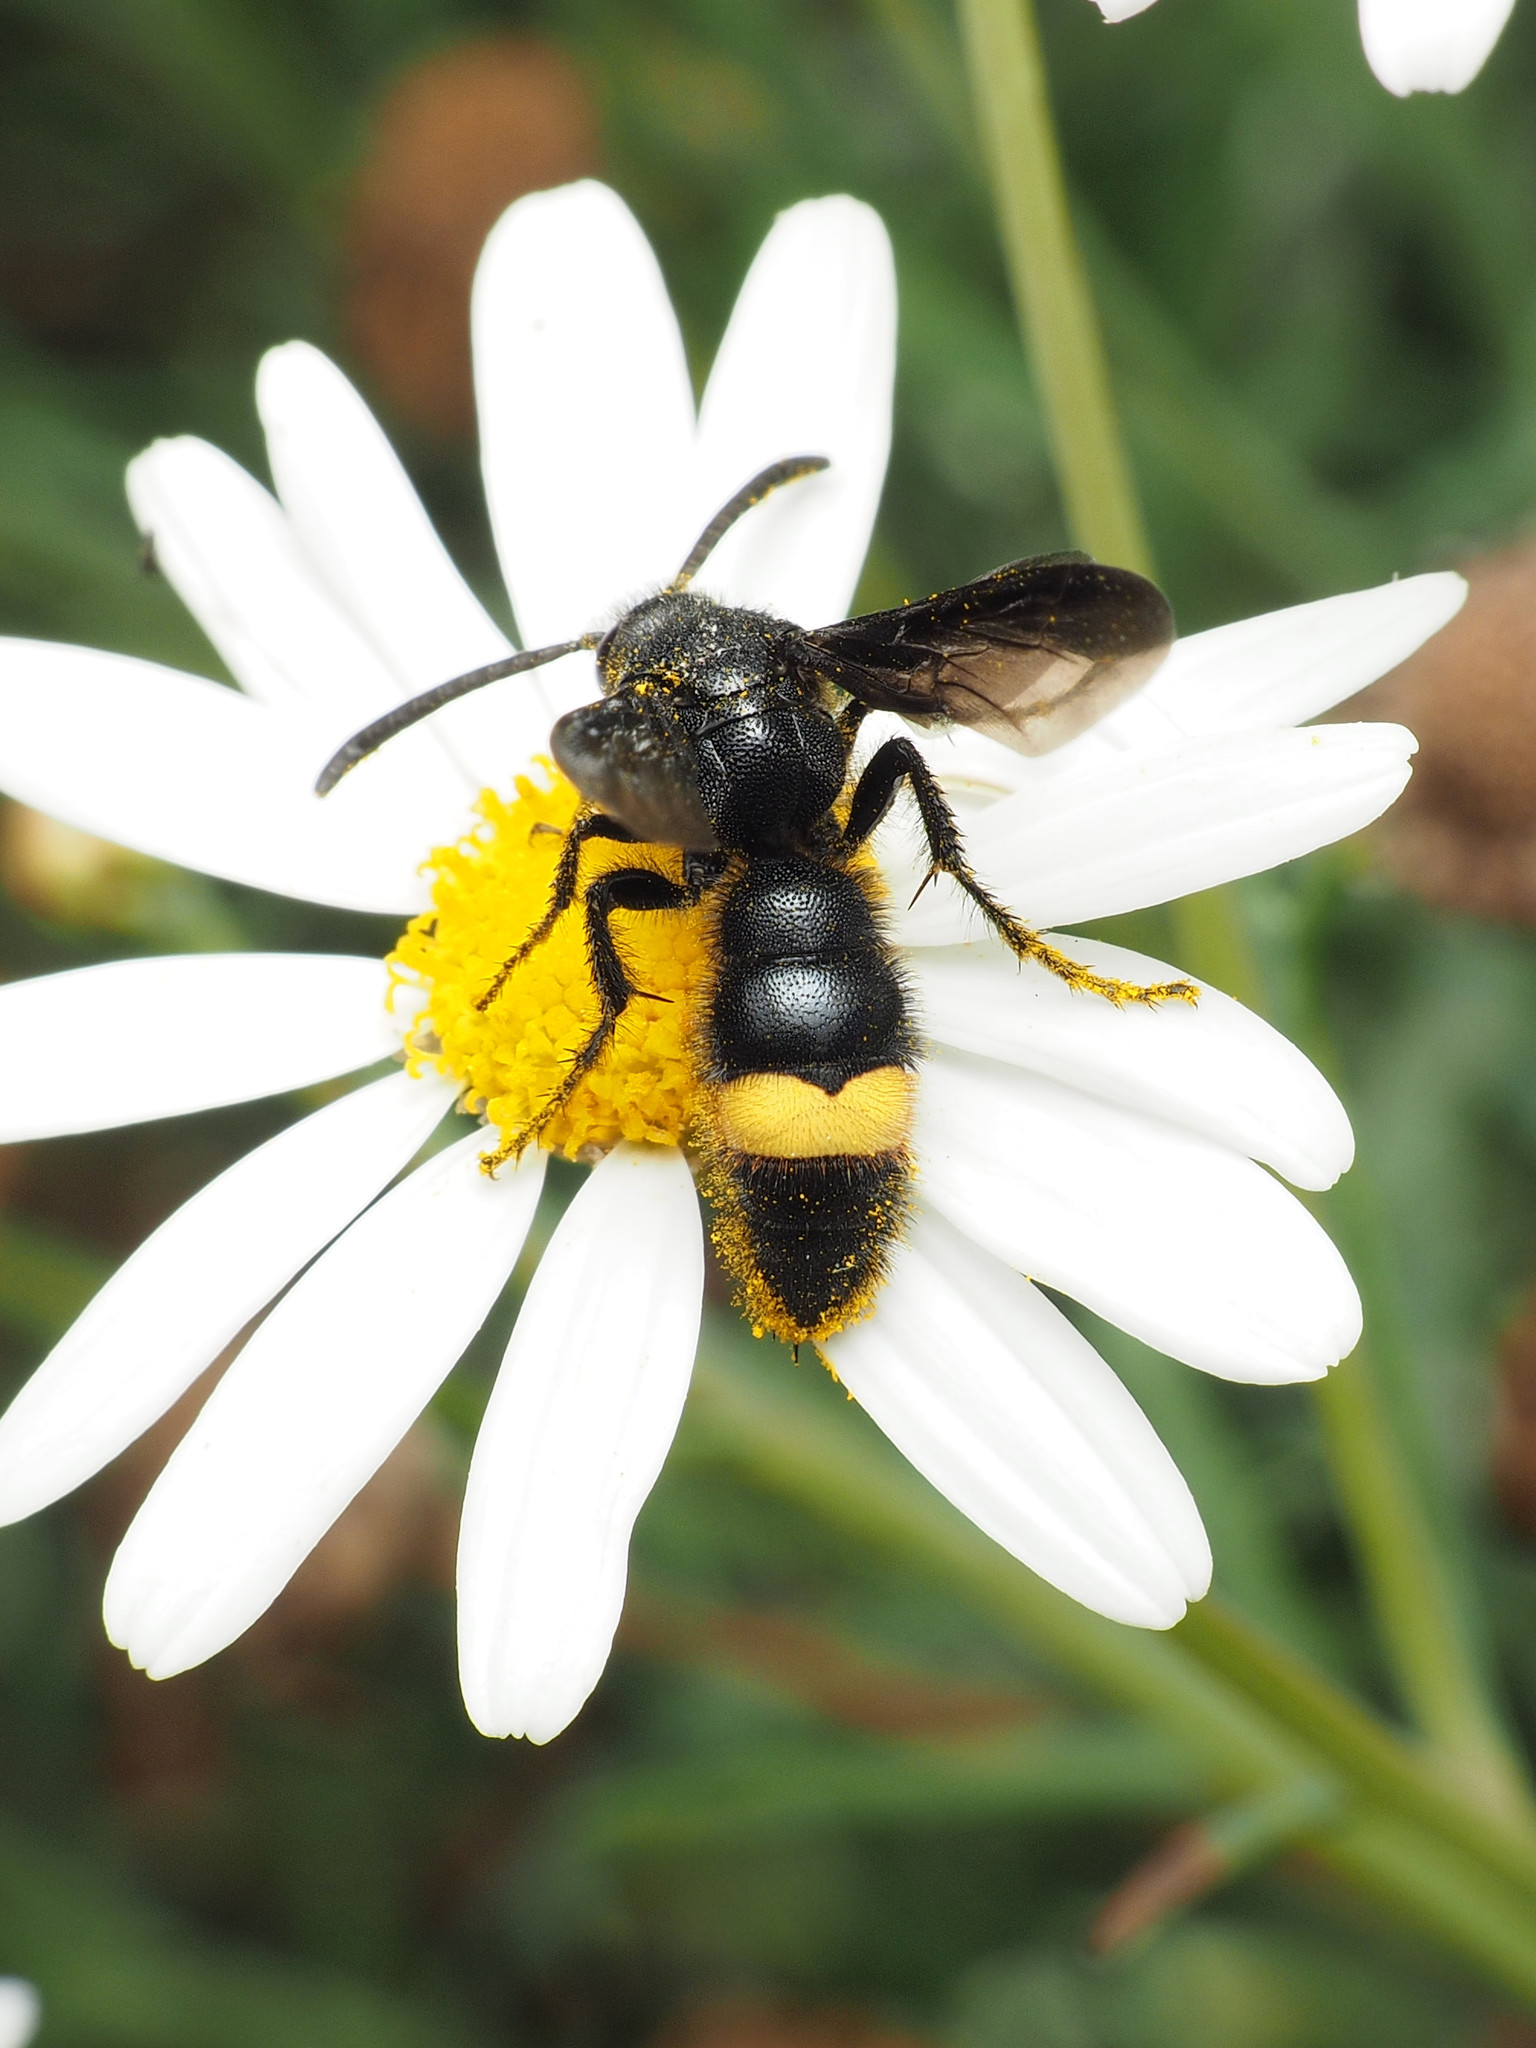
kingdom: Animalia
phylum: Arthropoda
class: Insecta
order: Hymenoptera
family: Scoliidae
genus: Scolia
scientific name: Scolia hirta
